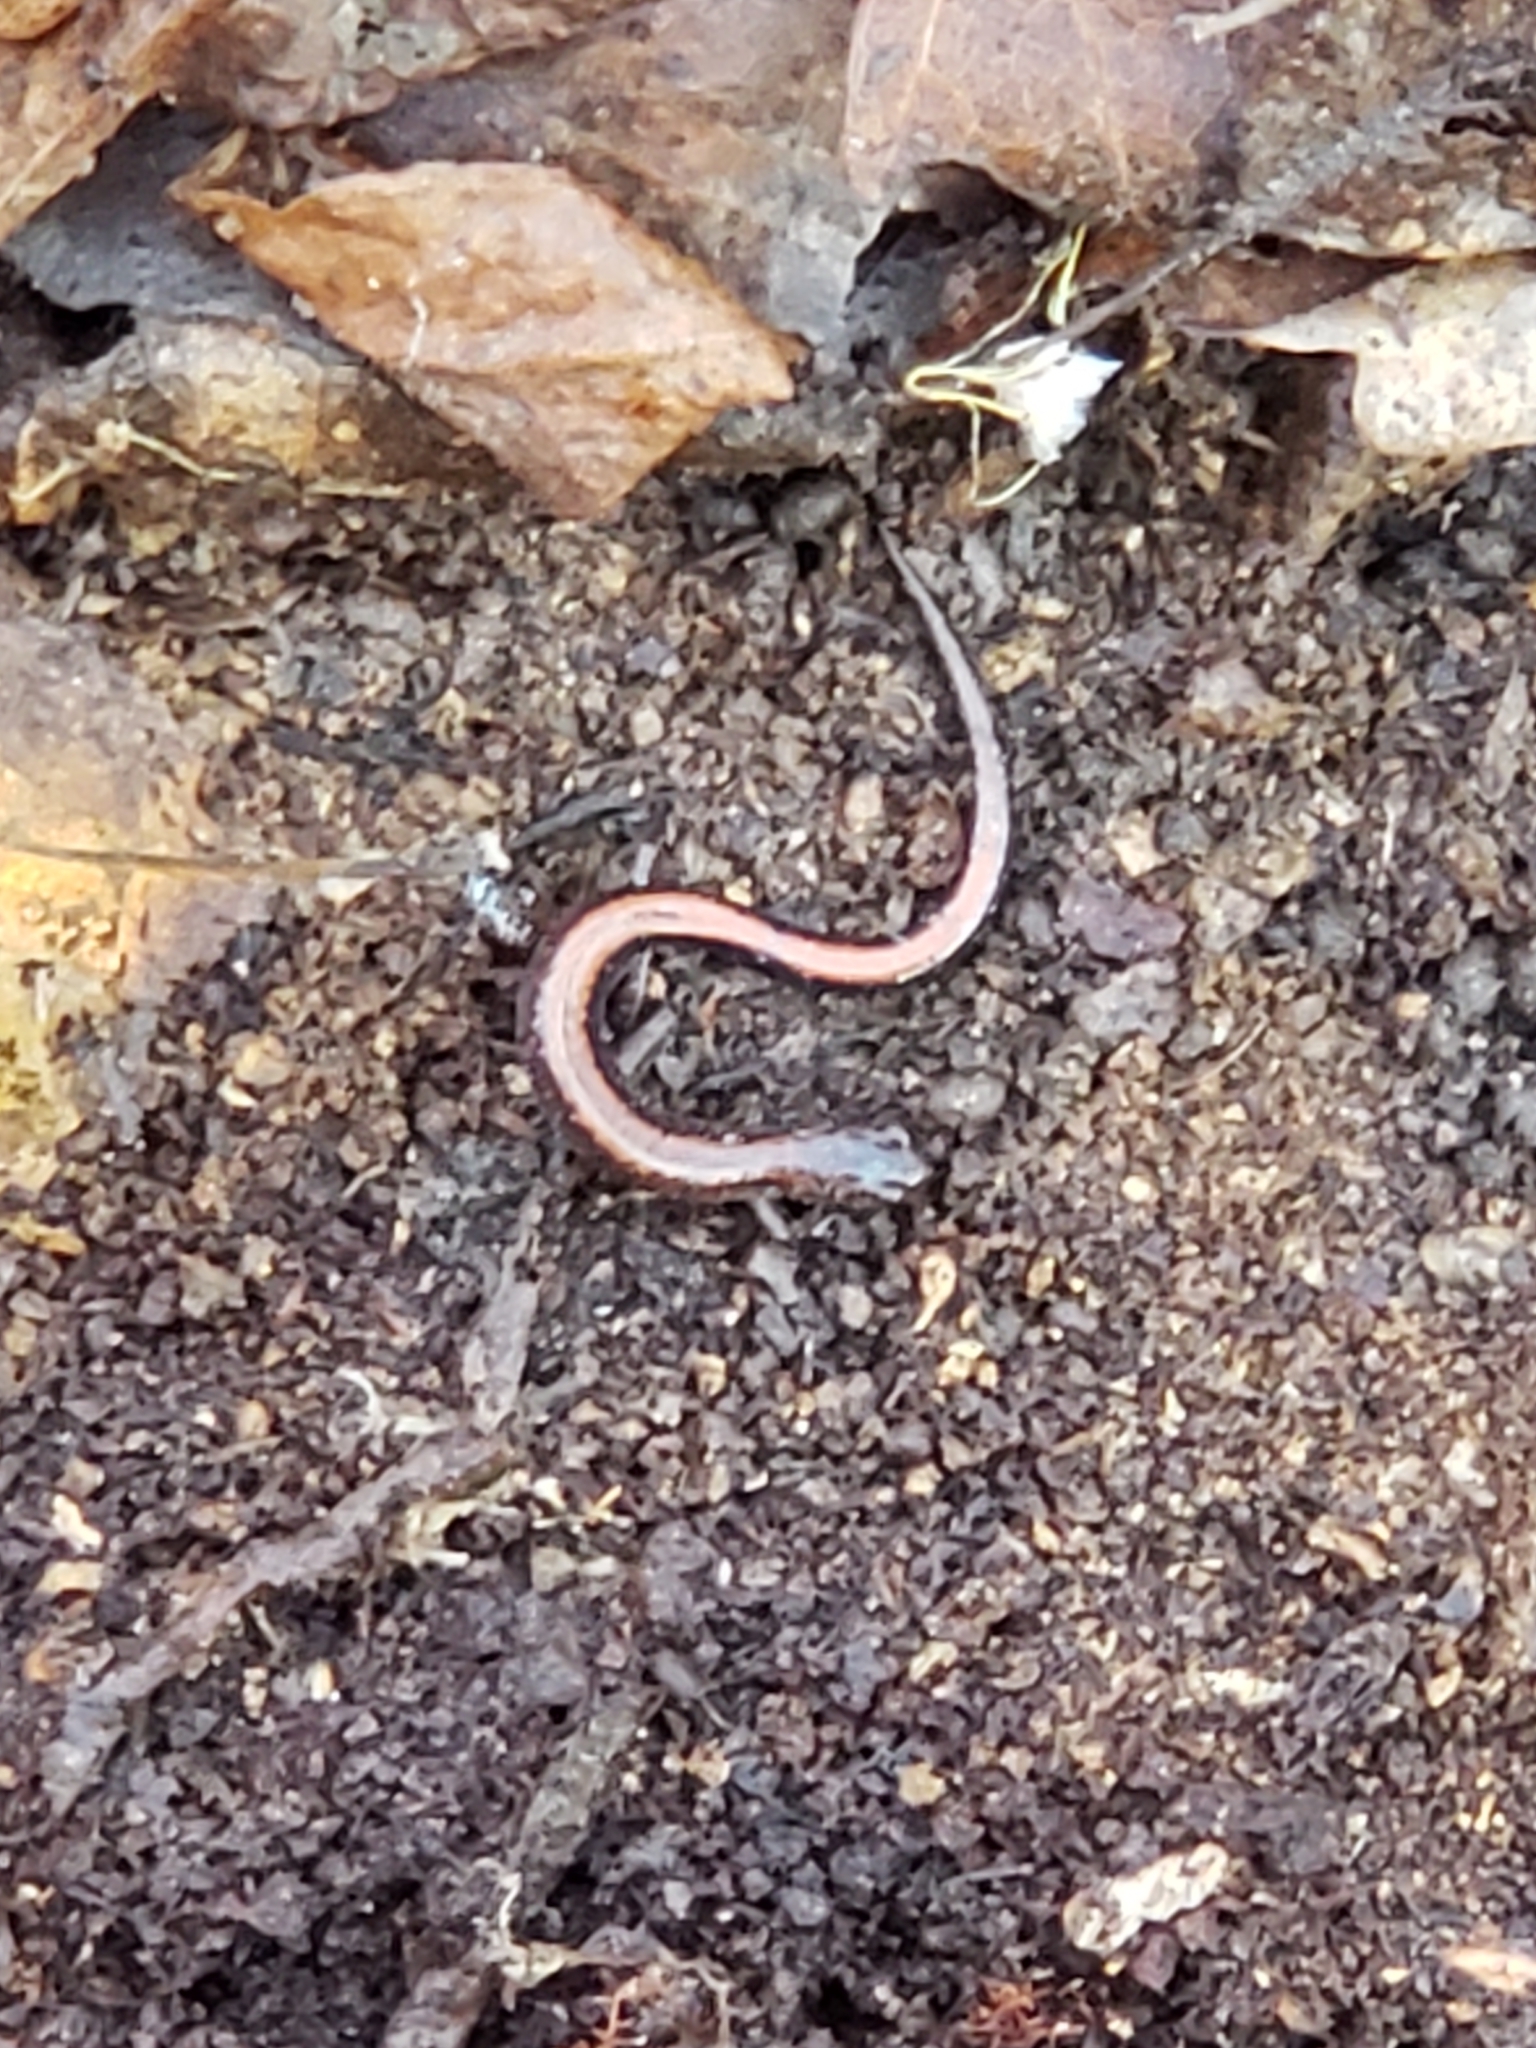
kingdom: Animalia
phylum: Chordata
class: Amphibia
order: Caudata
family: Plethodontidae
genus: Plethodon
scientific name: Plethodon cinereus
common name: Redback salamander
